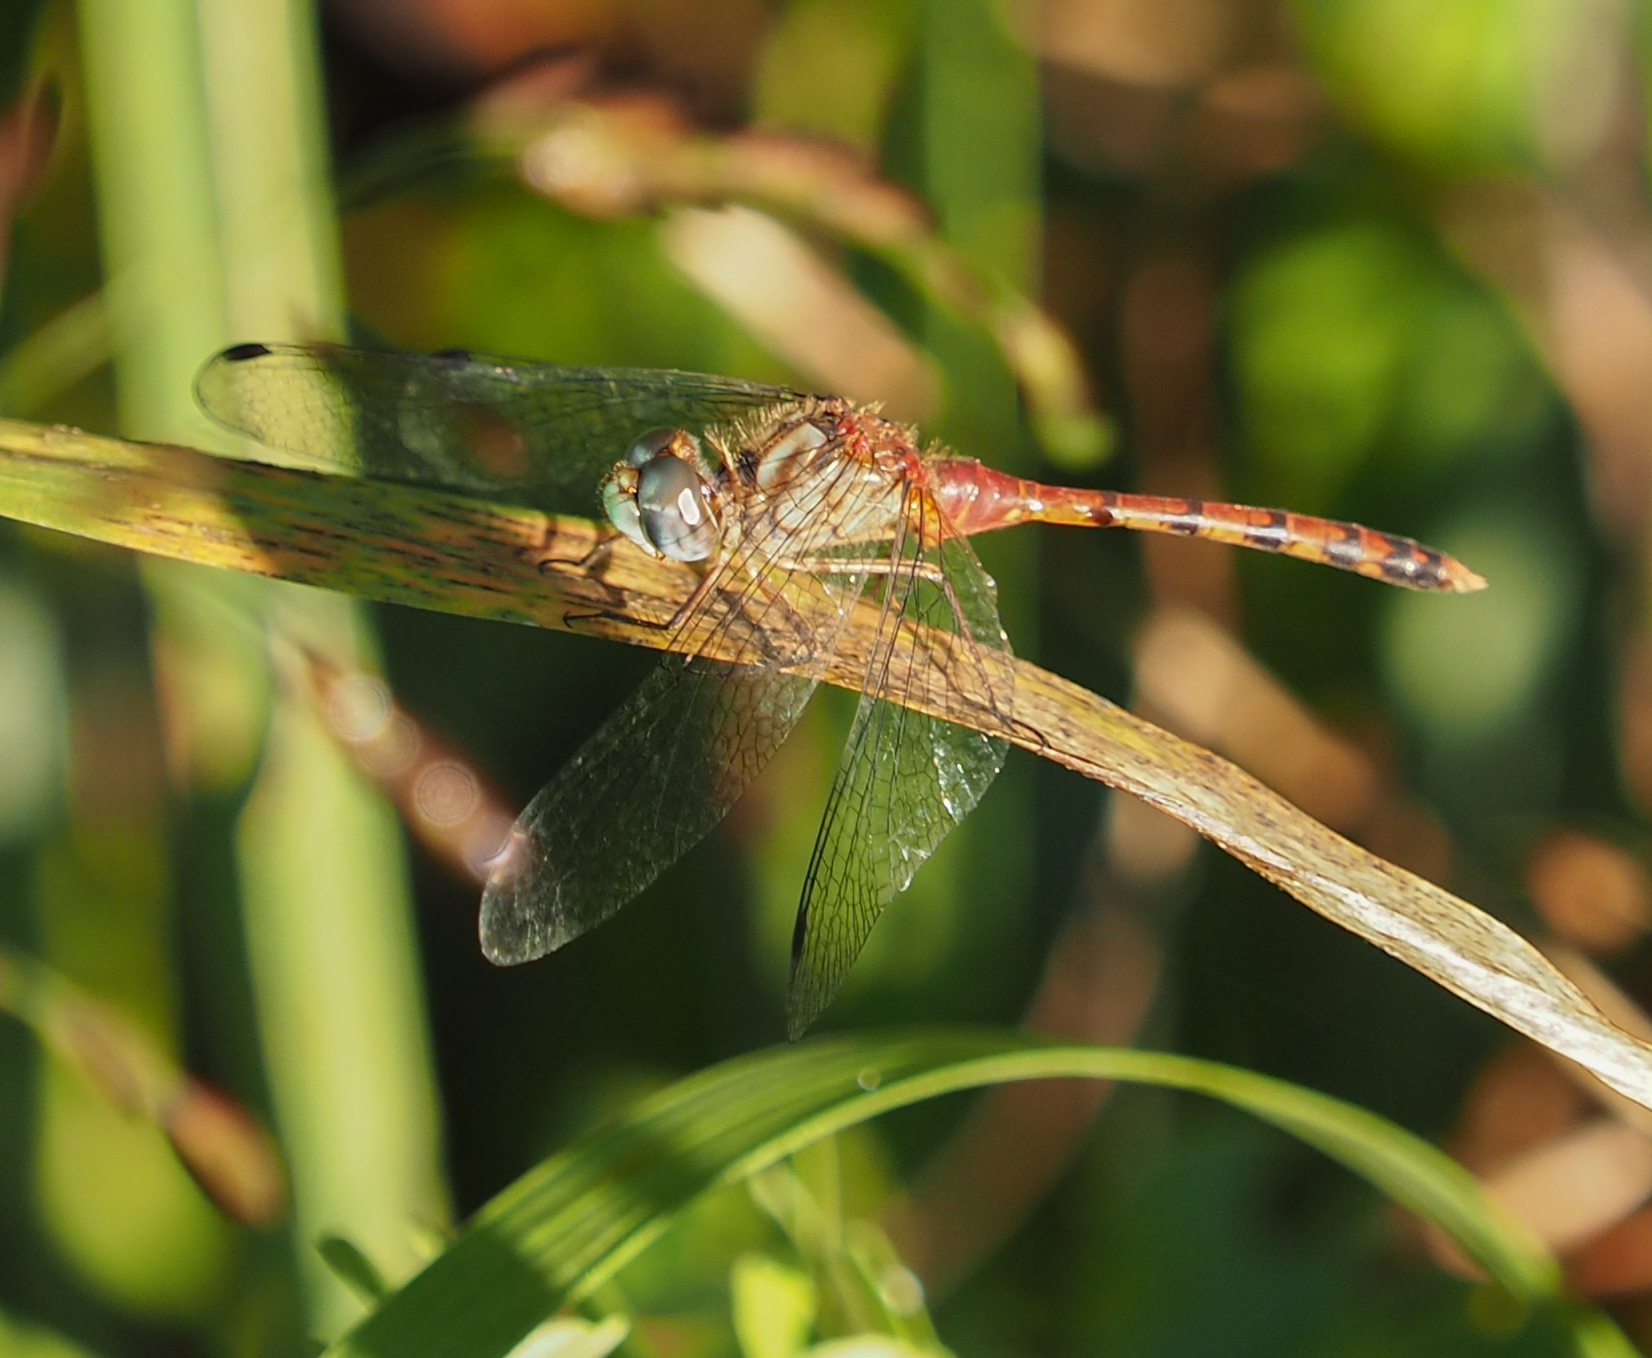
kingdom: Animalia
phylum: Arthropoda
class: Insecta
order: Odonata
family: Libellulidae
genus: Sympetrum
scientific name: Sympetrum ambiguum
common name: Blue-faced meadowhawk
